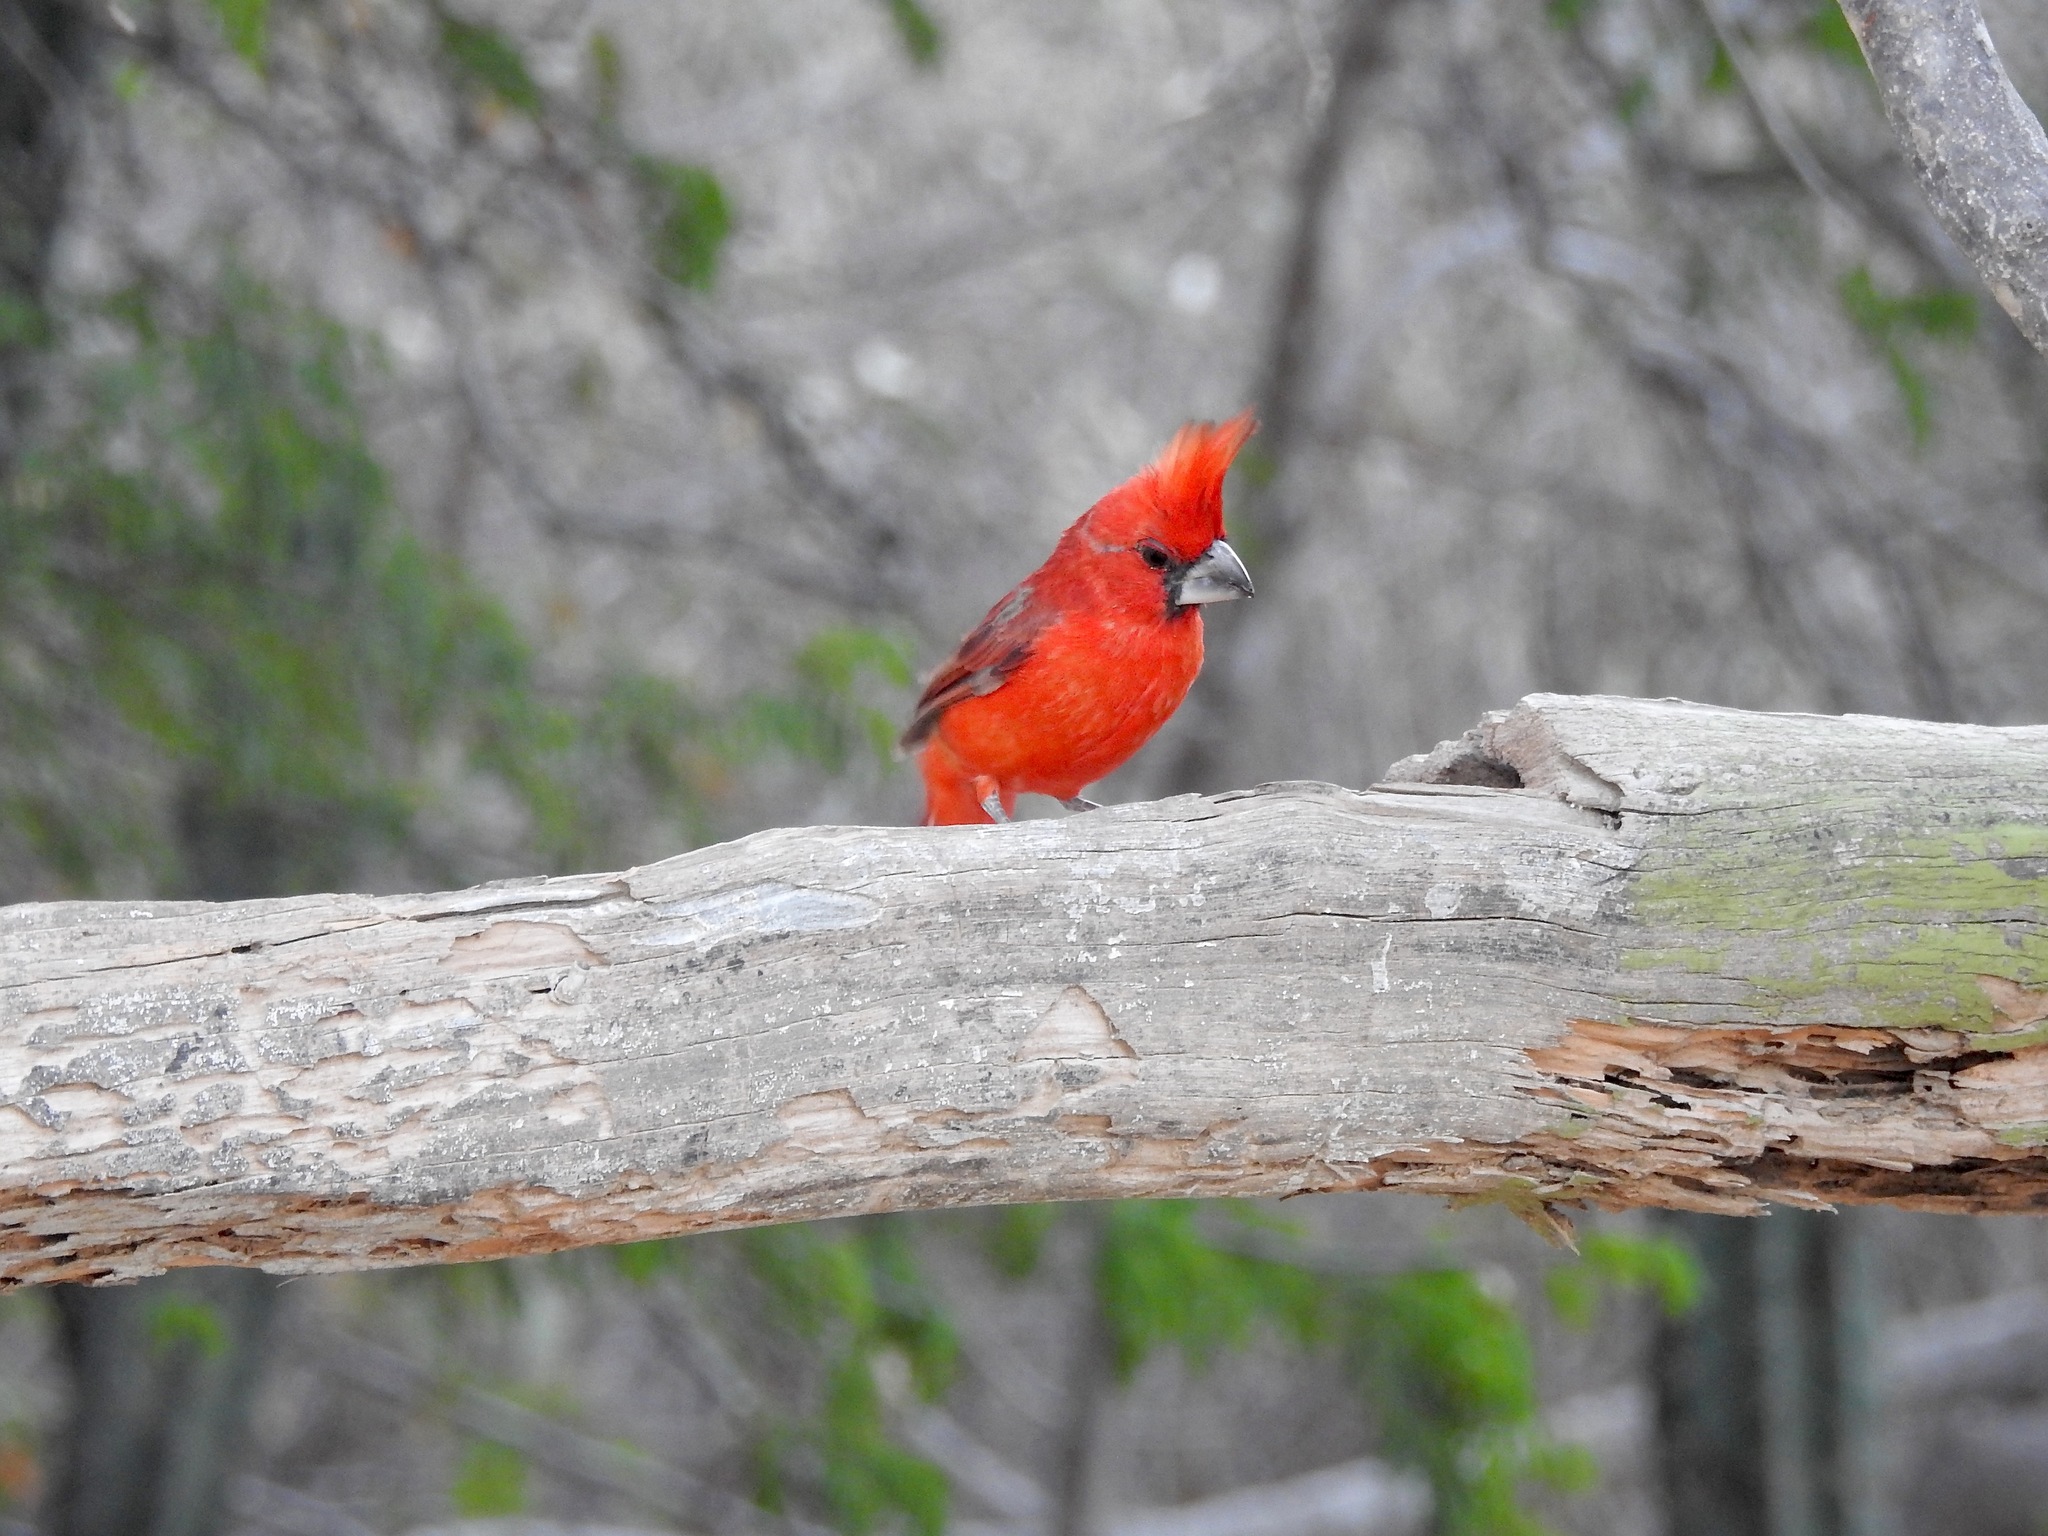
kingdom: Animalia
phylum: Chordata
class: Aves
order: Passeriformes
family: Cardinalidae
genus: Cardinalis
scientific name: Cardinalis phoeniceus
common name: Vermilion cardinal
